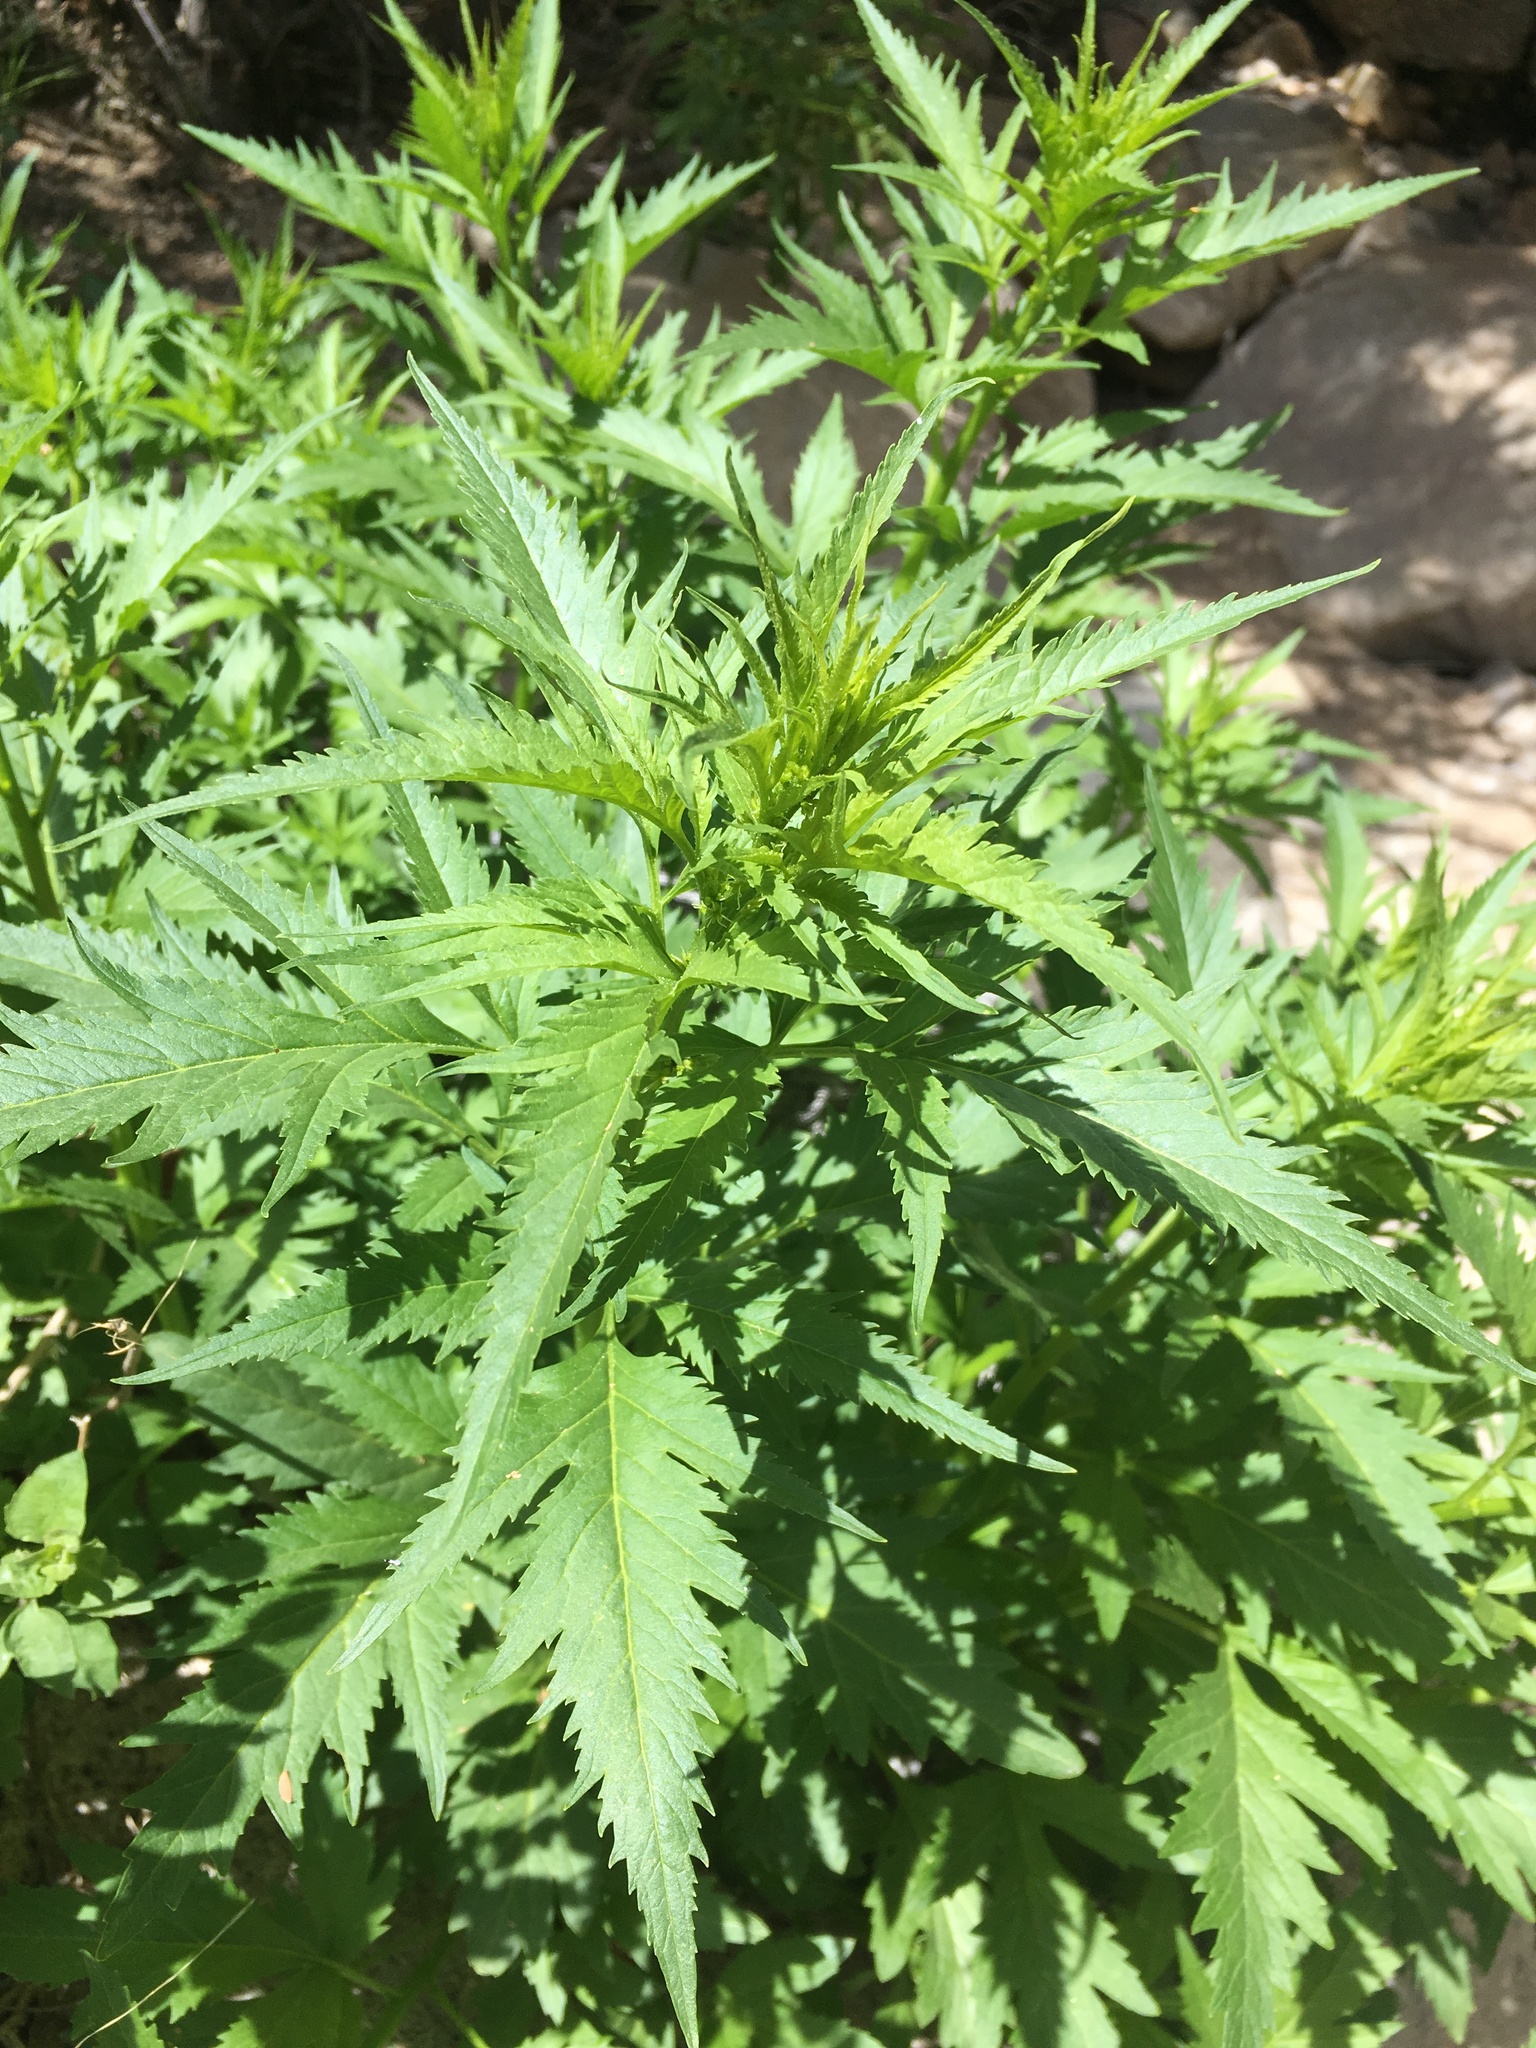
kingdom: Plantae
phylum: Tracheophyta
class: Magnoliopsida
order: Cucurbitales
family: Datiscaceae
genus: Datisca
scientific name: Datisca glomerata
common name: Durango-root
